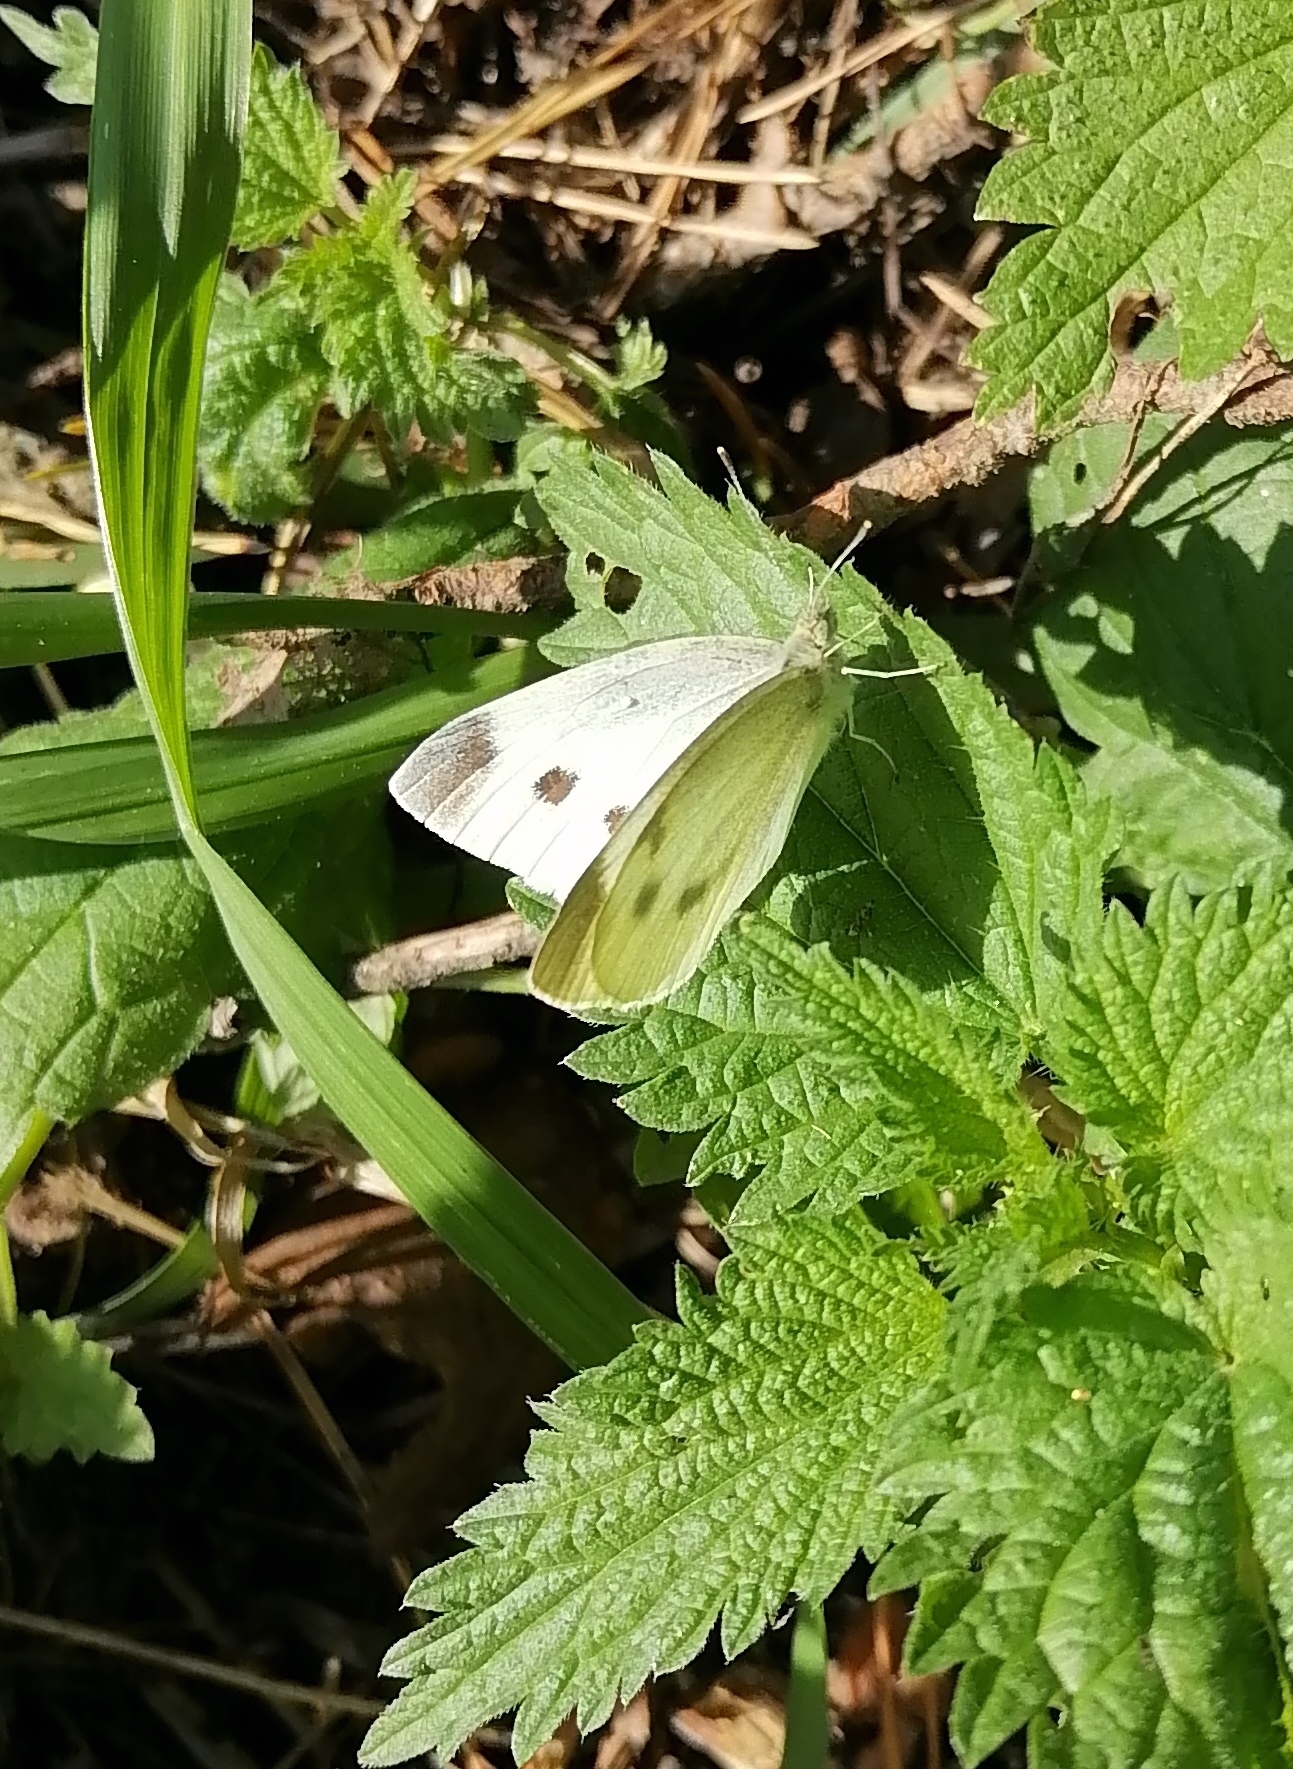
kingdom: Animalia
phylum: Arthropoda
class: Insecta
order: Lepidoptera
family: Pieridae
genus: Pieris
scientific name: Pieris rapae
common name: Small white
